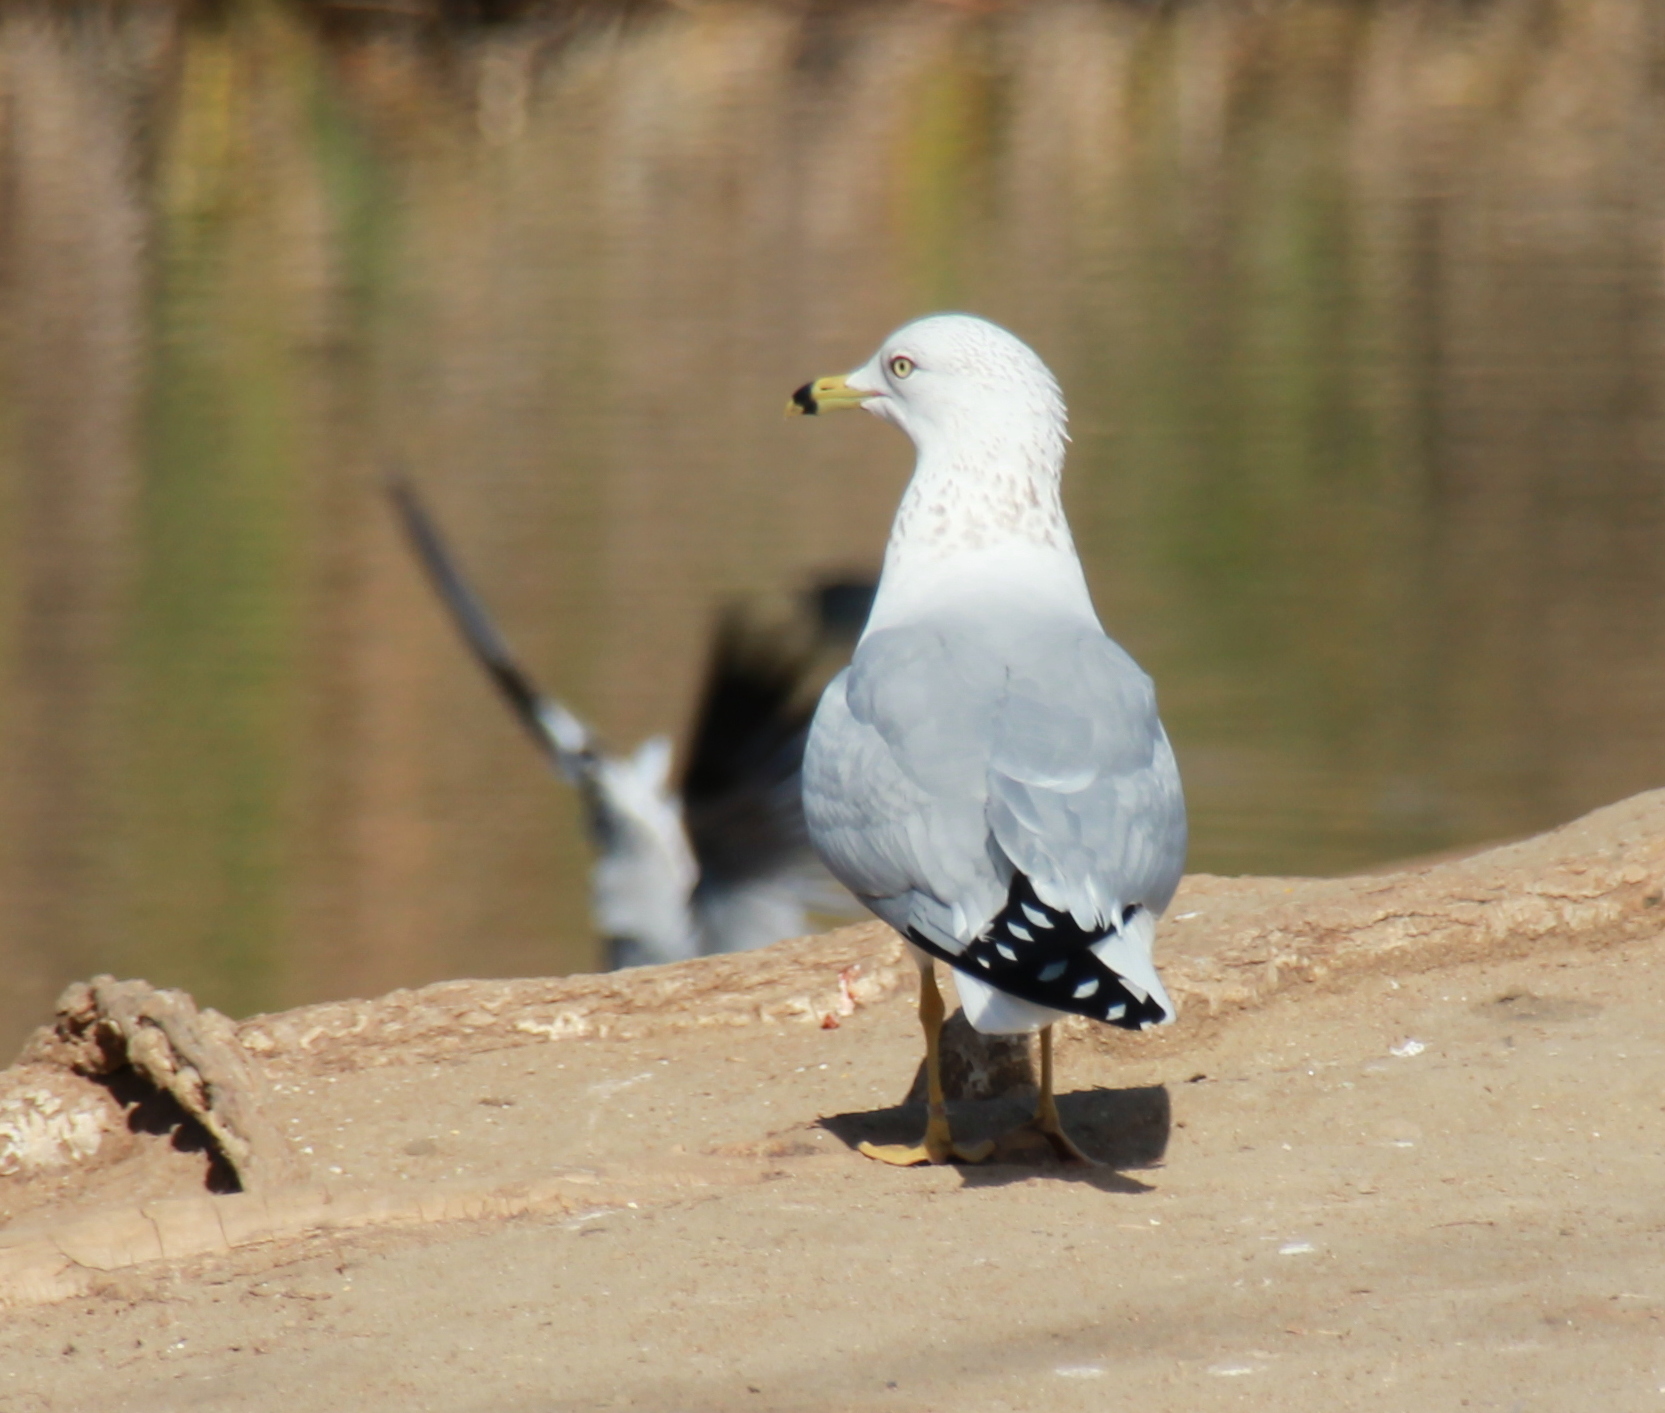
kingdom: Animalia
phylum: Chordata
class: Aves
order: Charadriiformes
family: Laridae
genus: Larus
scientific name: Larus delawarensis
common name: Ring-billed gull
